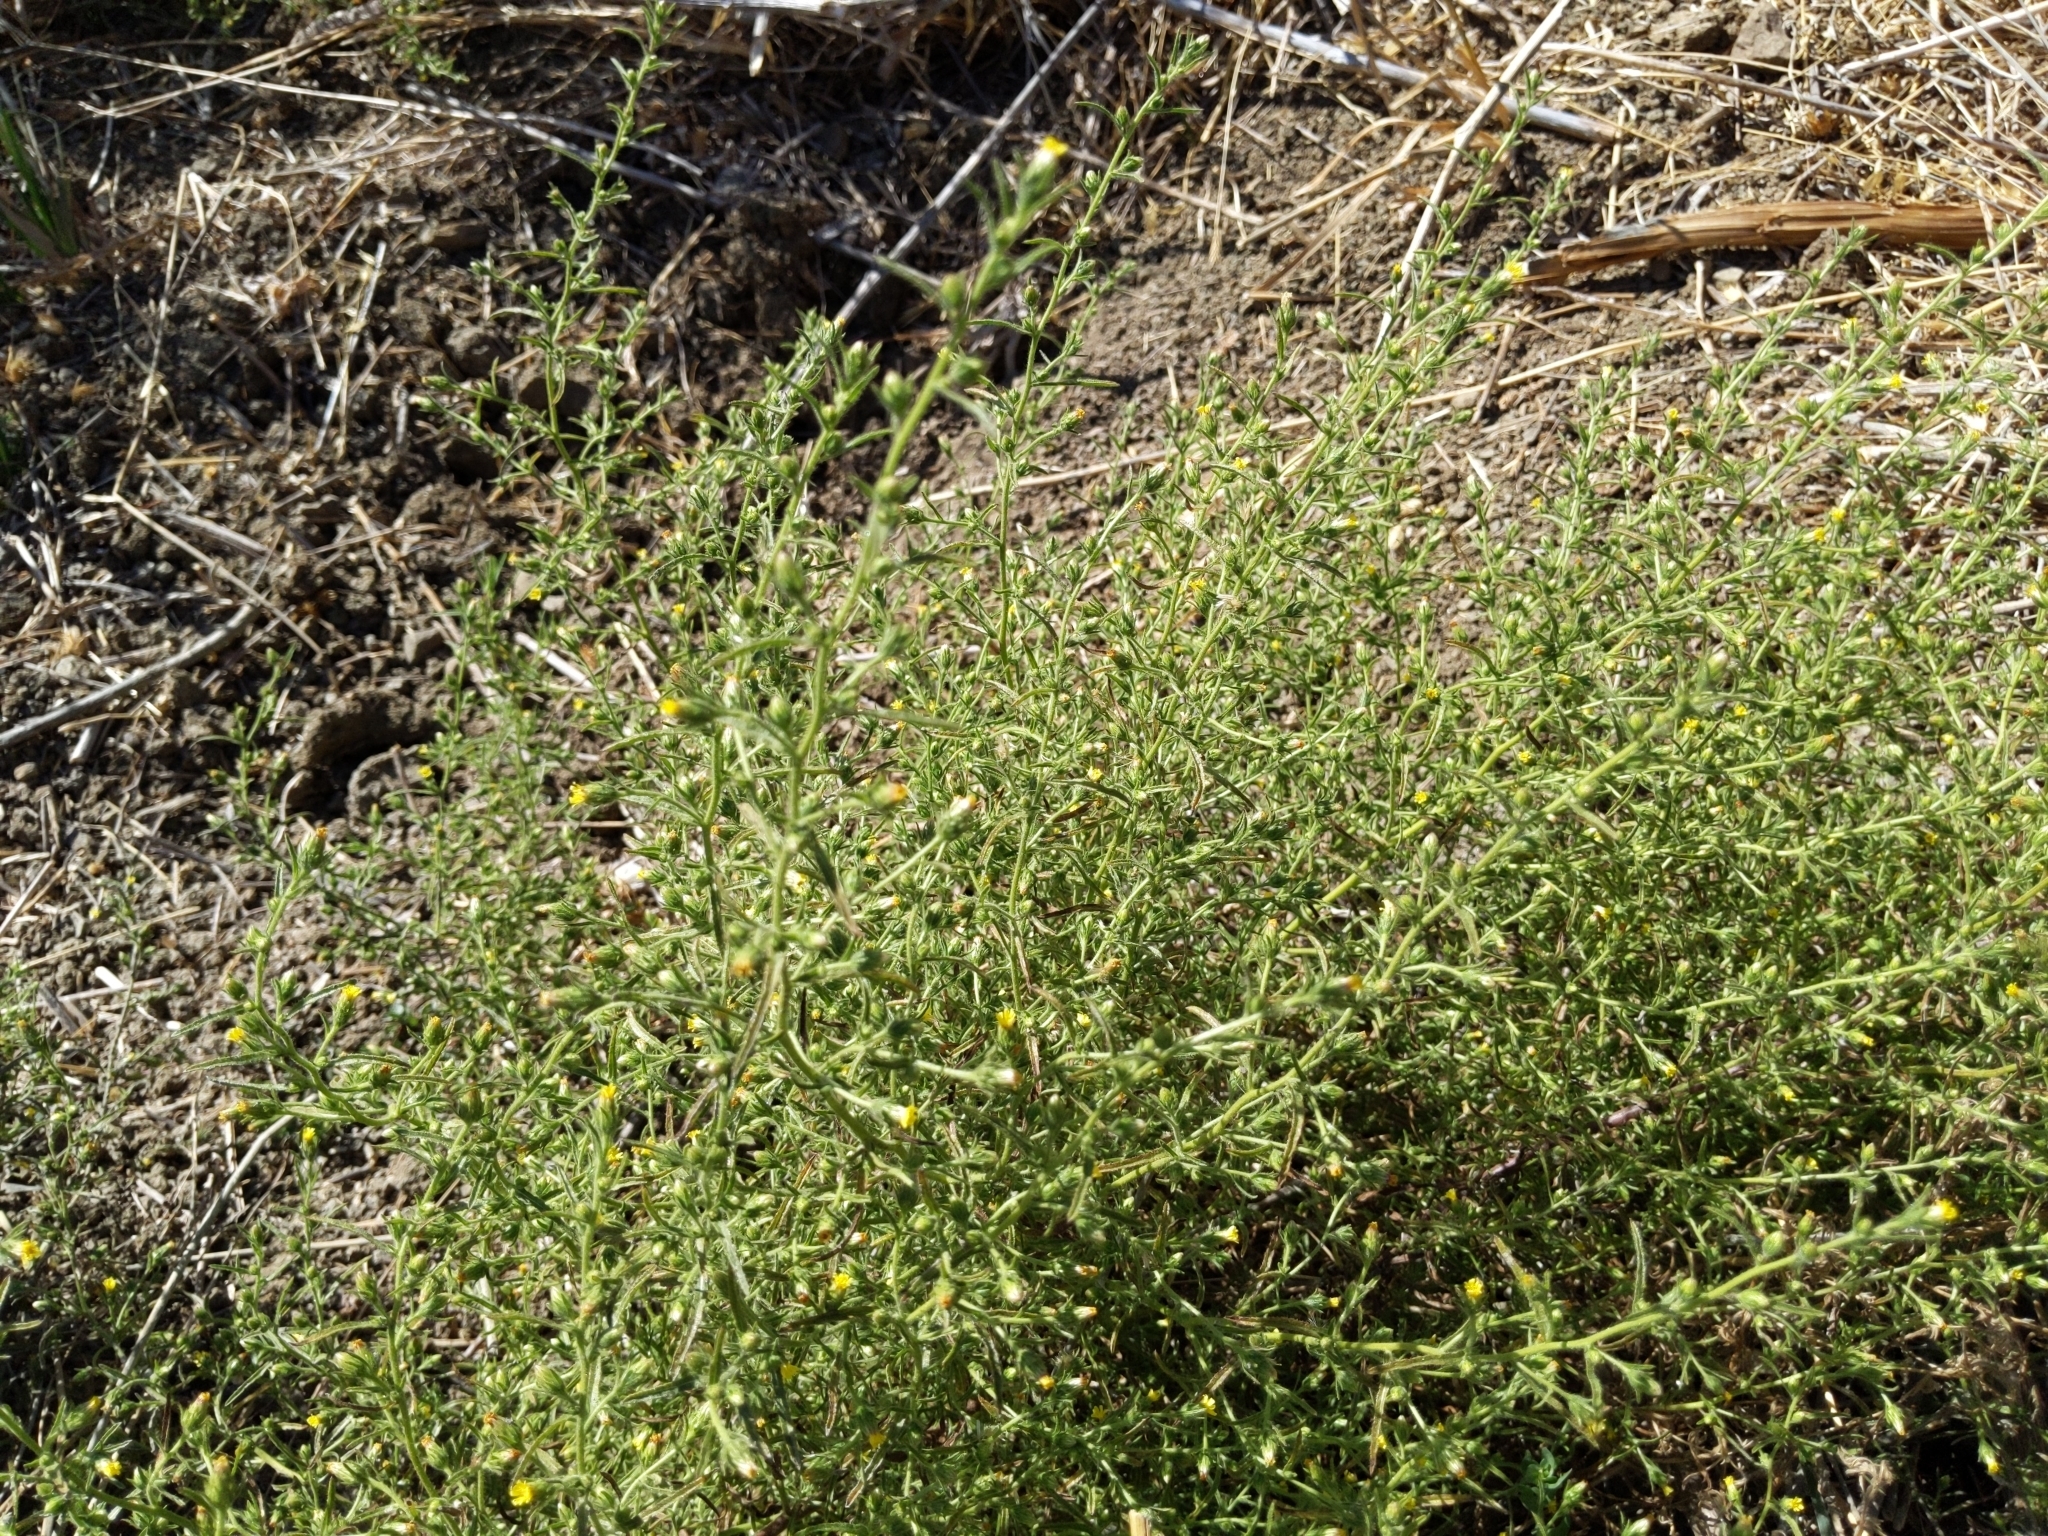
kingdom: Plantae
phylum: Tracheophyta
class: Magnoliopsida
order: Asterales
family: Asteraceae
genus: Dittrichia
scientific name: Dittrichia graveolens
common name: Stinking fleabane
